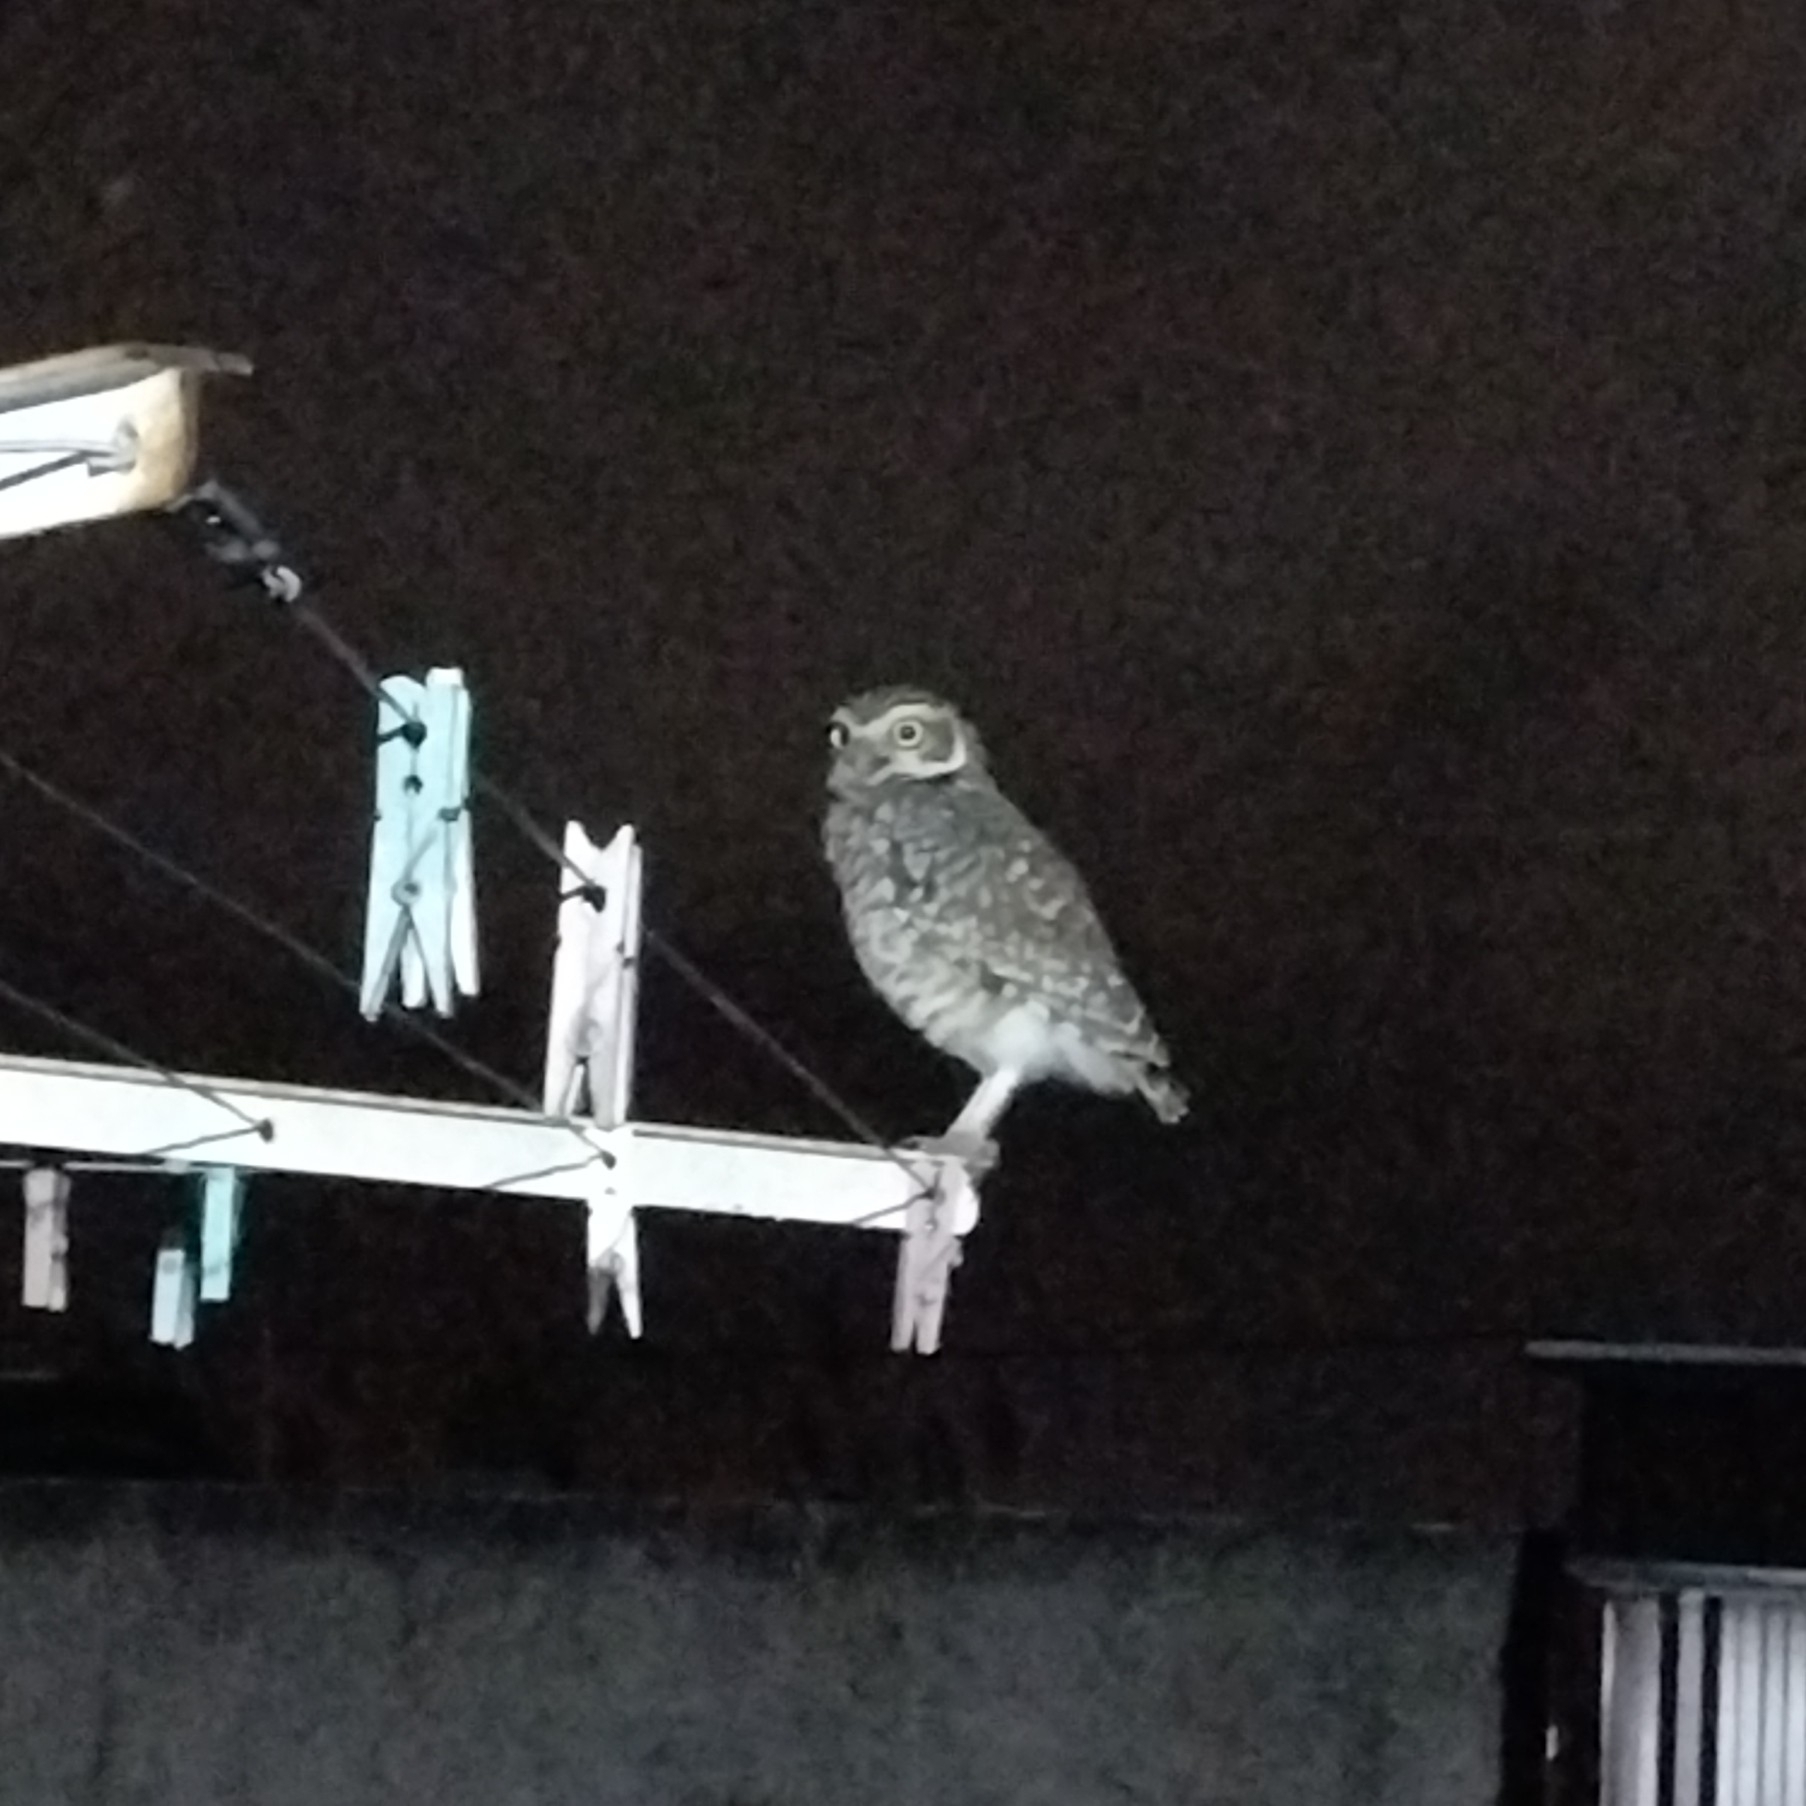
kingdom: Animalia
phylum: Chordata
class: Aves
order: Strigiformes
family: Strigidae
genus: Athene
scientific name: Athene cunicularia
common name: Burrowing owl
